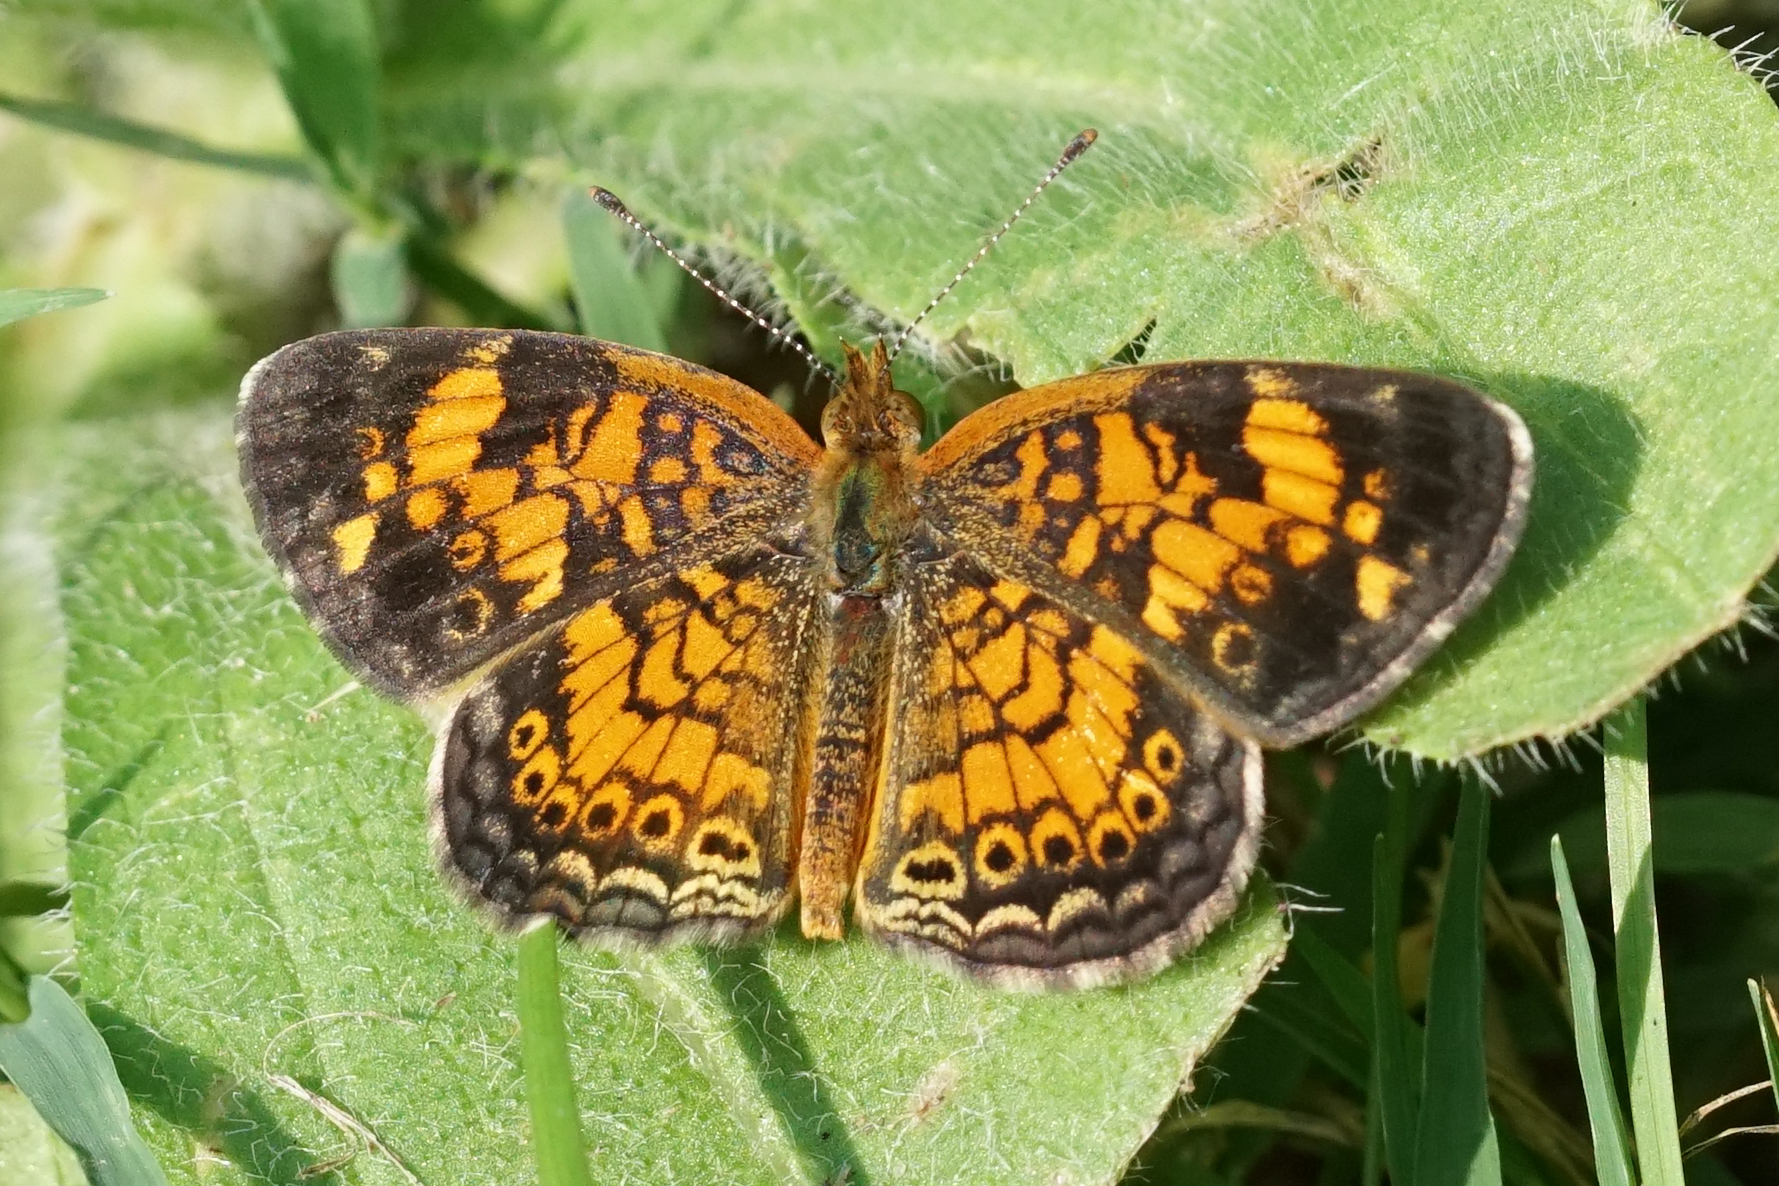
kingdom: Animalia
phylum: Arthropoda
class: Insecta
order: Lepidoptera
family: Nymphalidae
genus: Phyciodes
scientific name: Phyciodes tharos
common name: Pearl crescent
